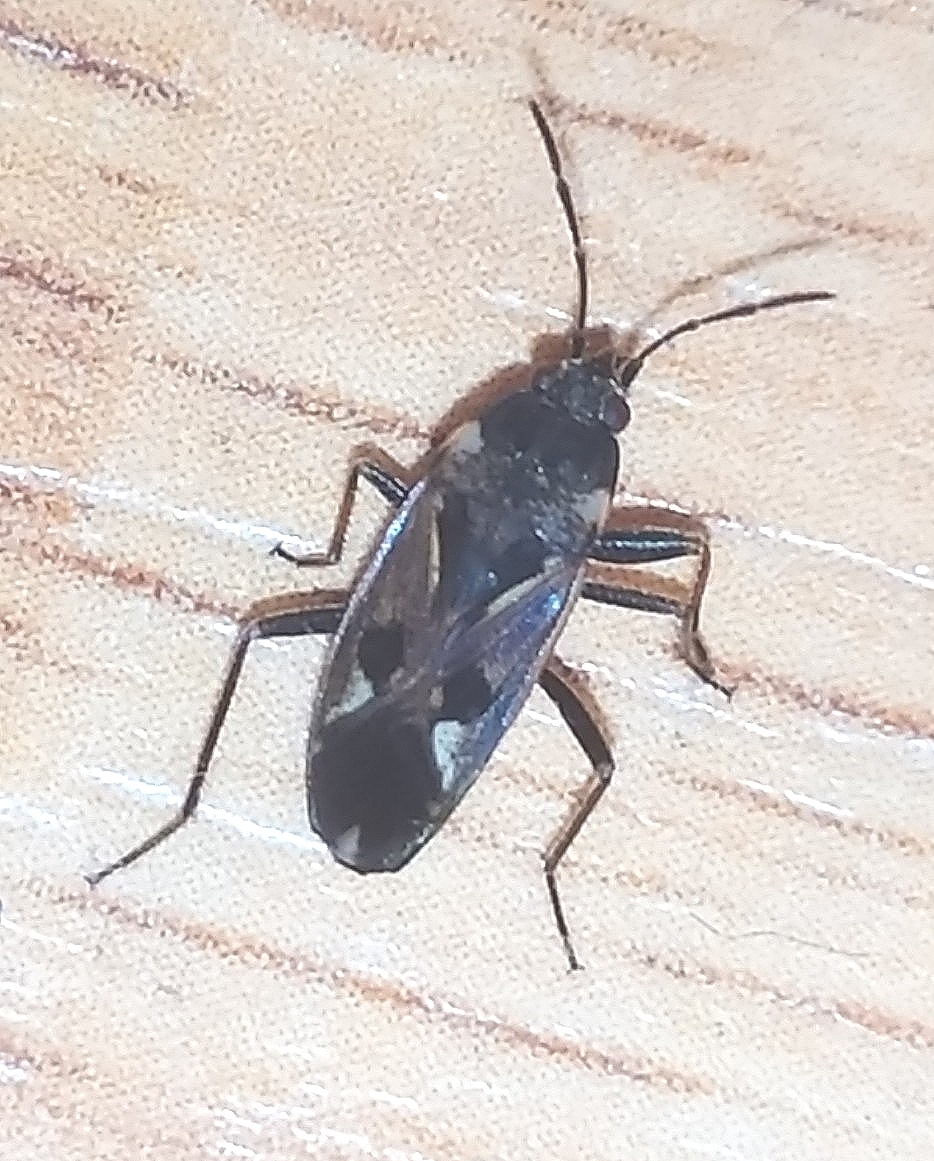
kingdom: Animalia
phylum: Arthropoda
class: Insecta
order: Hemiptera
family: Rhyparochromidae
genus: Rhyparochromus
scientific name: Rhyparochromus vulgaris
